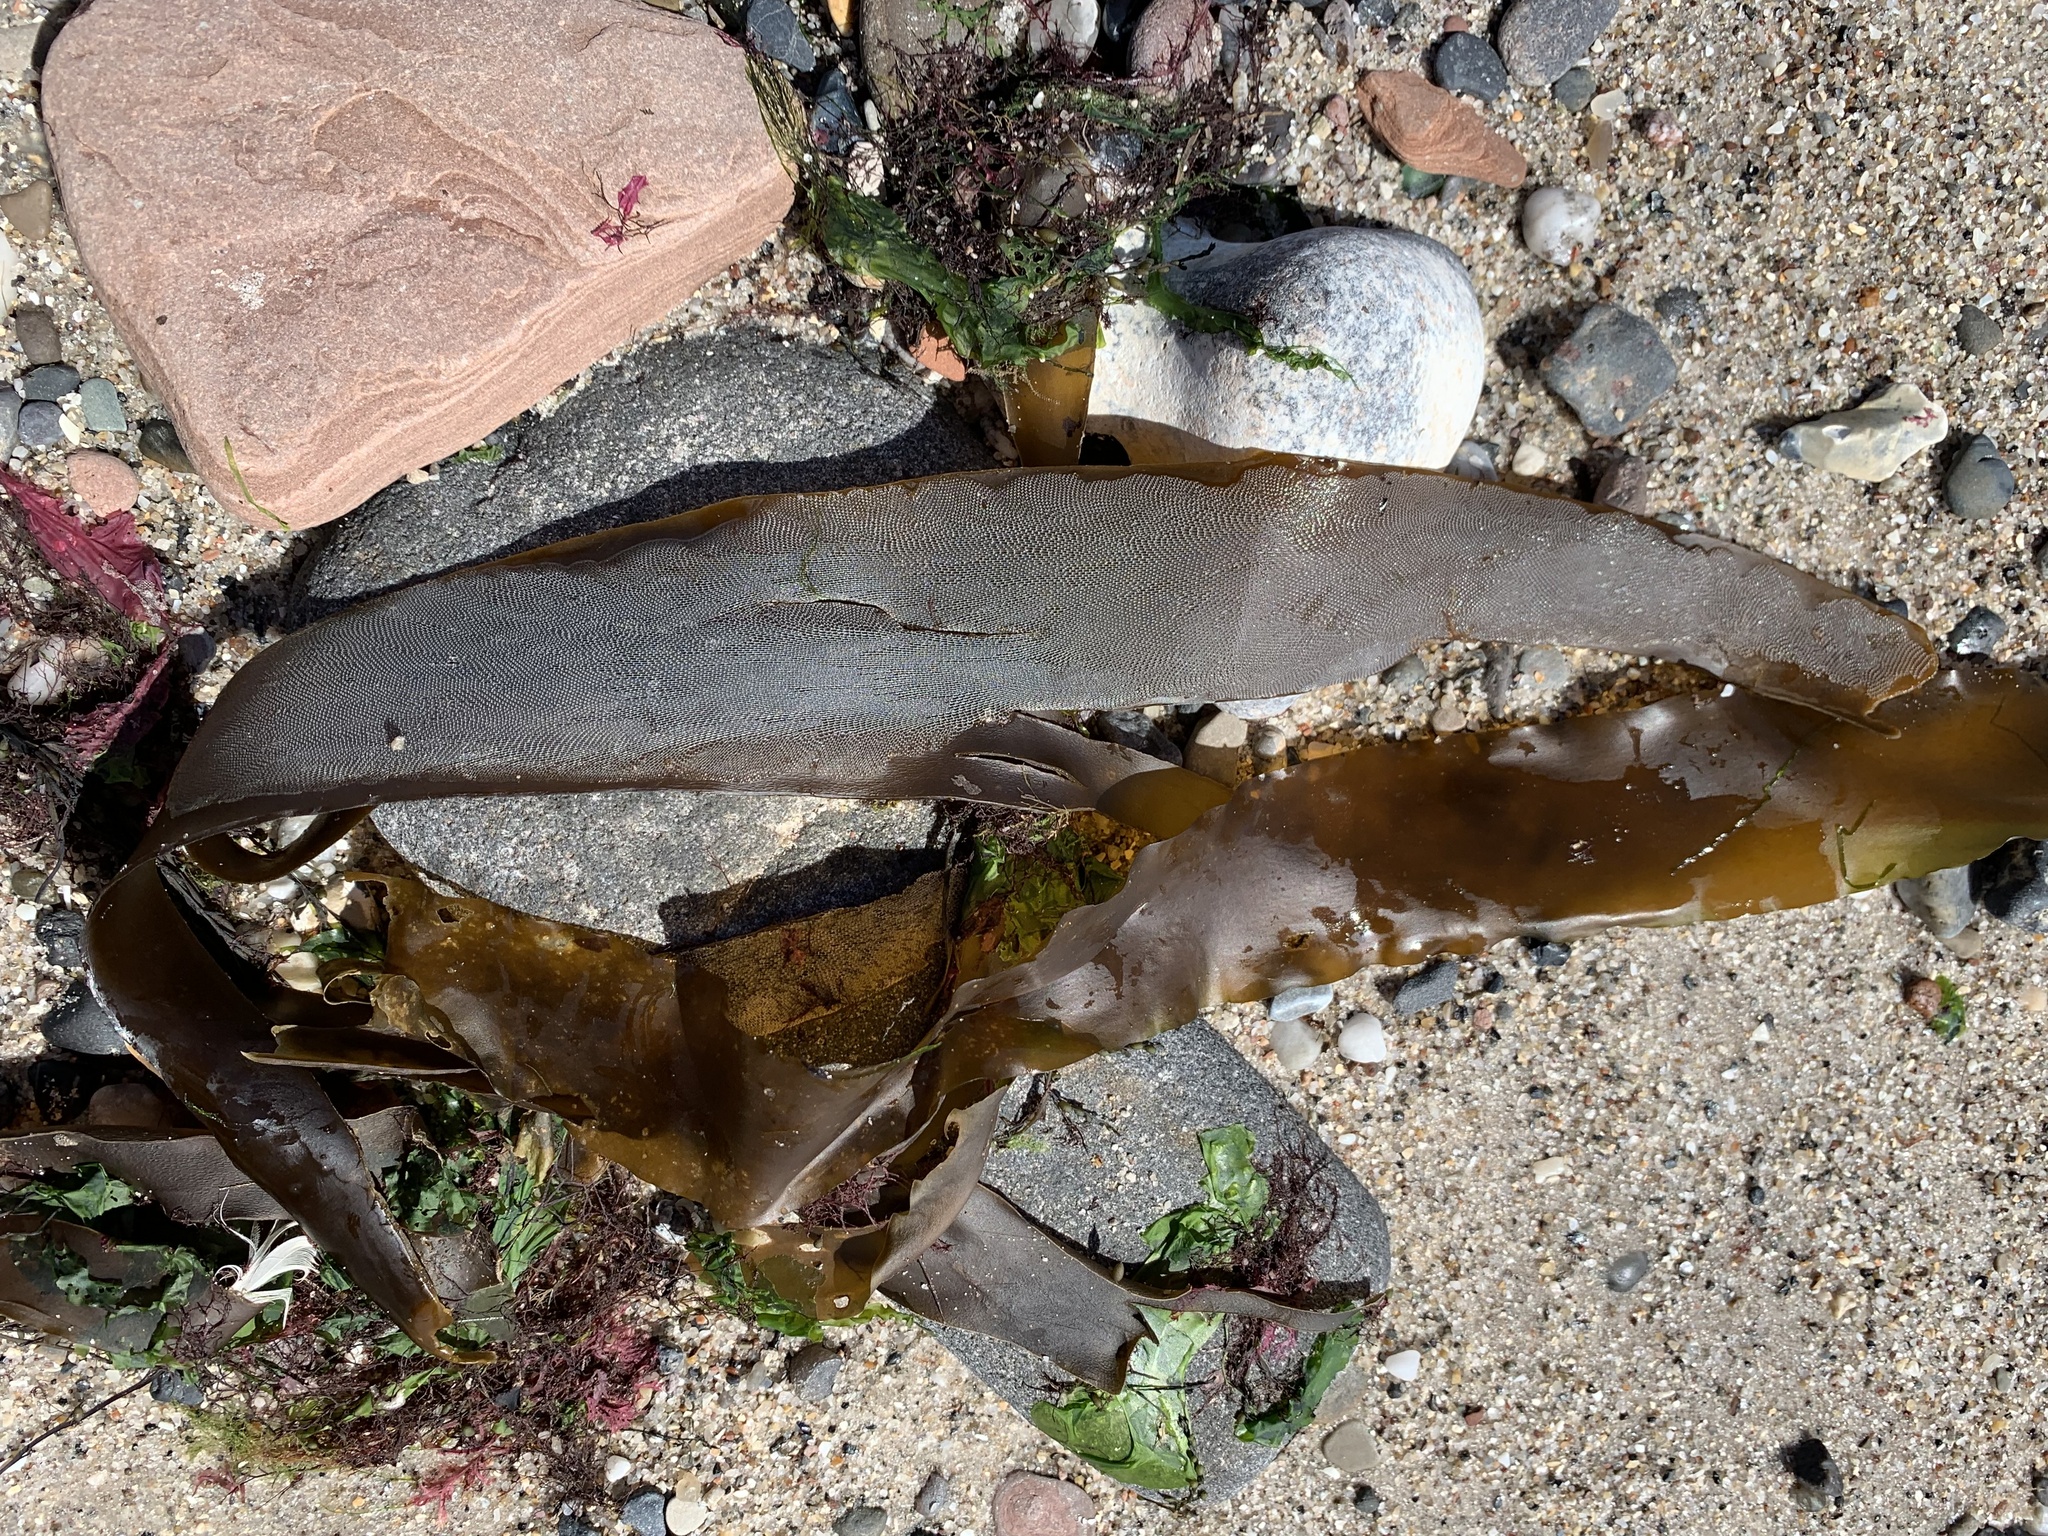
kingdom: Animalia
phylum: Bryozoa
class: Gymnolaemata
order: Cheilostomatida
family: Membraniporidae
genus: Membranipora
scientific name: Membranipora membranacea
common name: Sea mat
